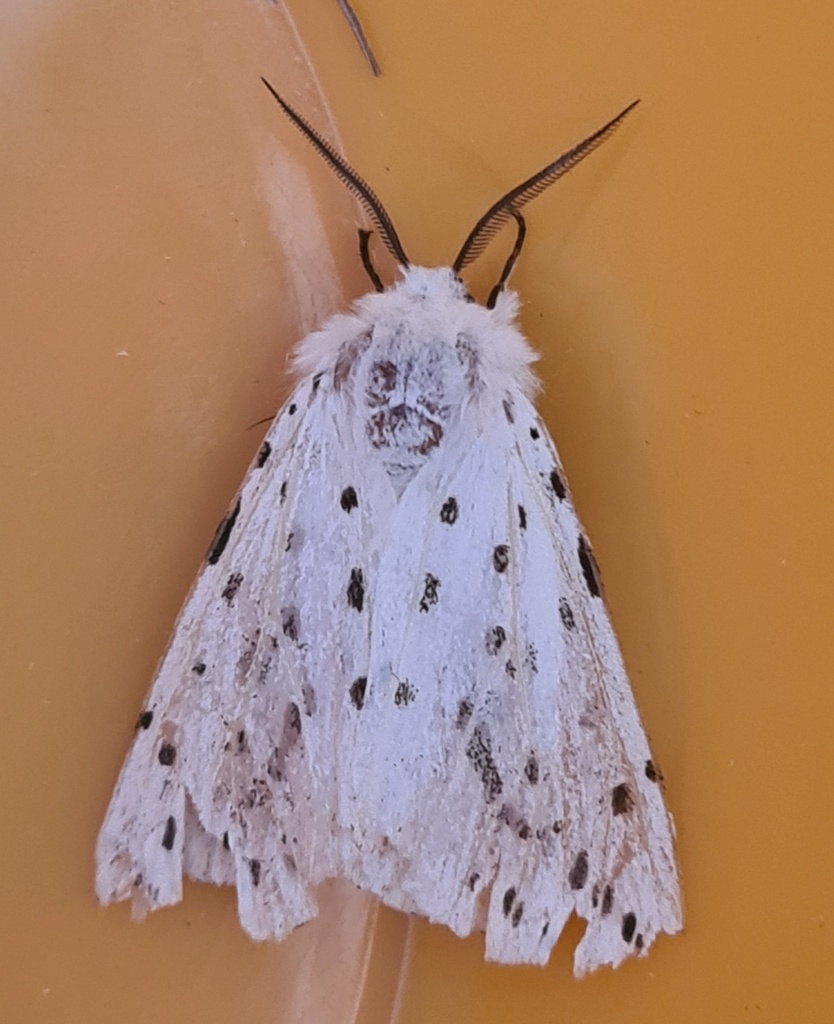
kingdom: Animalia
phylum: Arthropoda
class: Insecta
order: Lepidoptera
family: Erebidae
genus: Spilosoma
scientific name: Spilosoma lubricipeda
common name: White ermine
